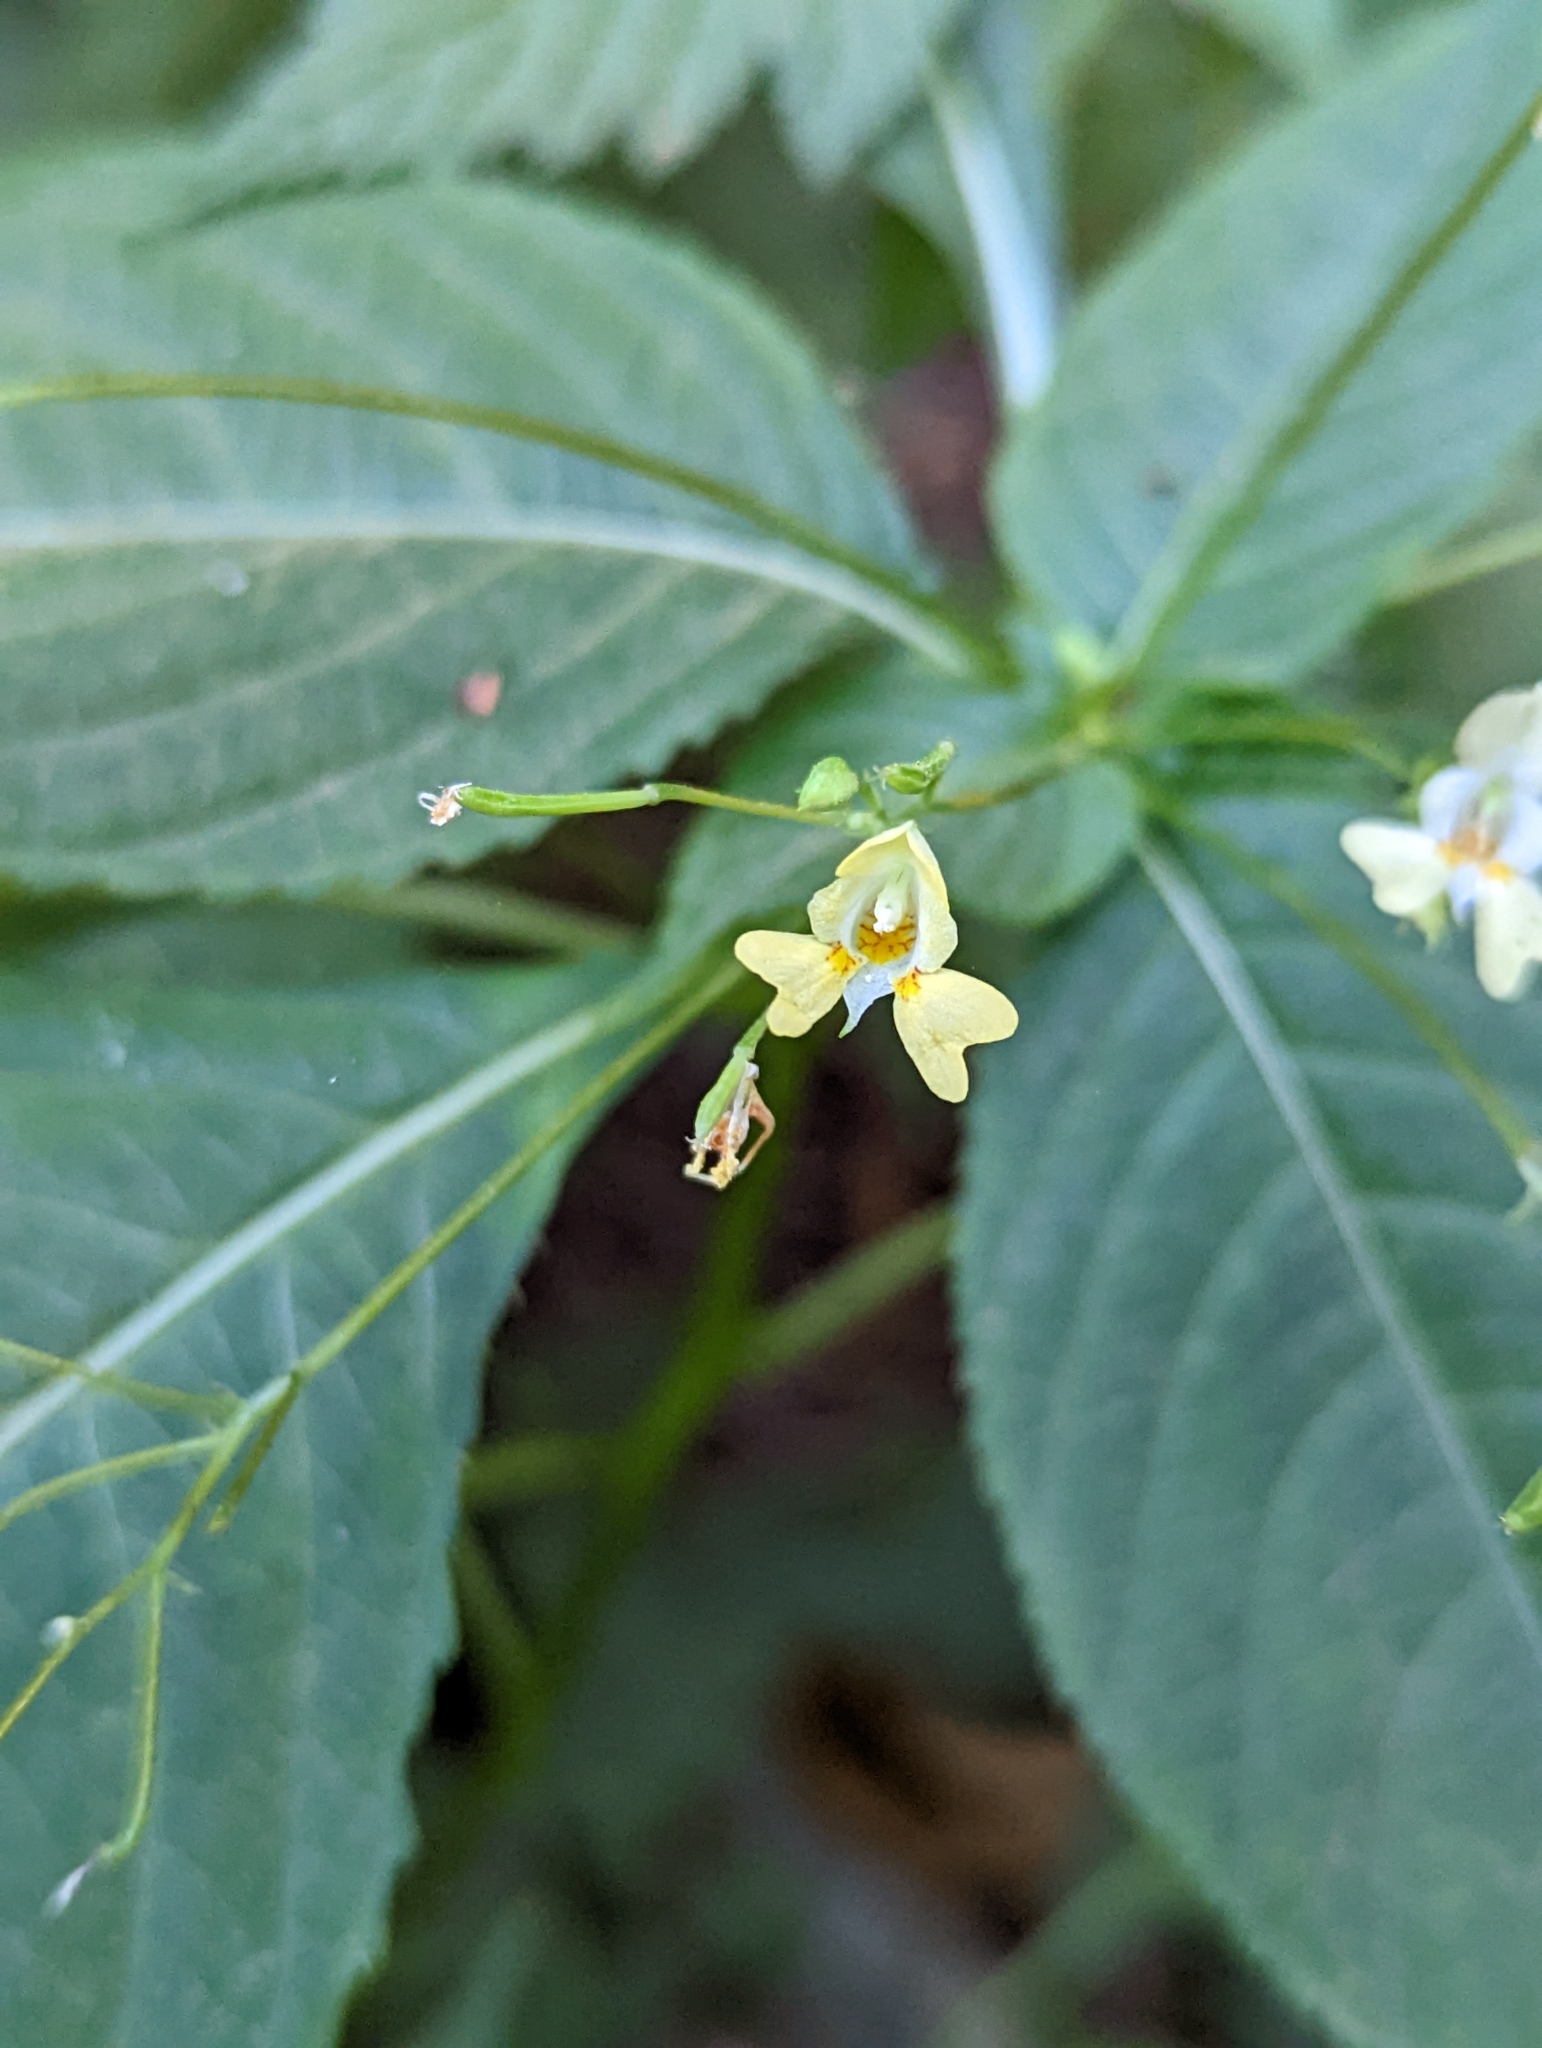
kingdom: Plantae
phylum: Tracheophyta
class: Magnoliopsida
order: Ericales
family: Balsaminaceae
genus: Impatiens
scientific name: Impatiens parviflora
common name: Small balsam
